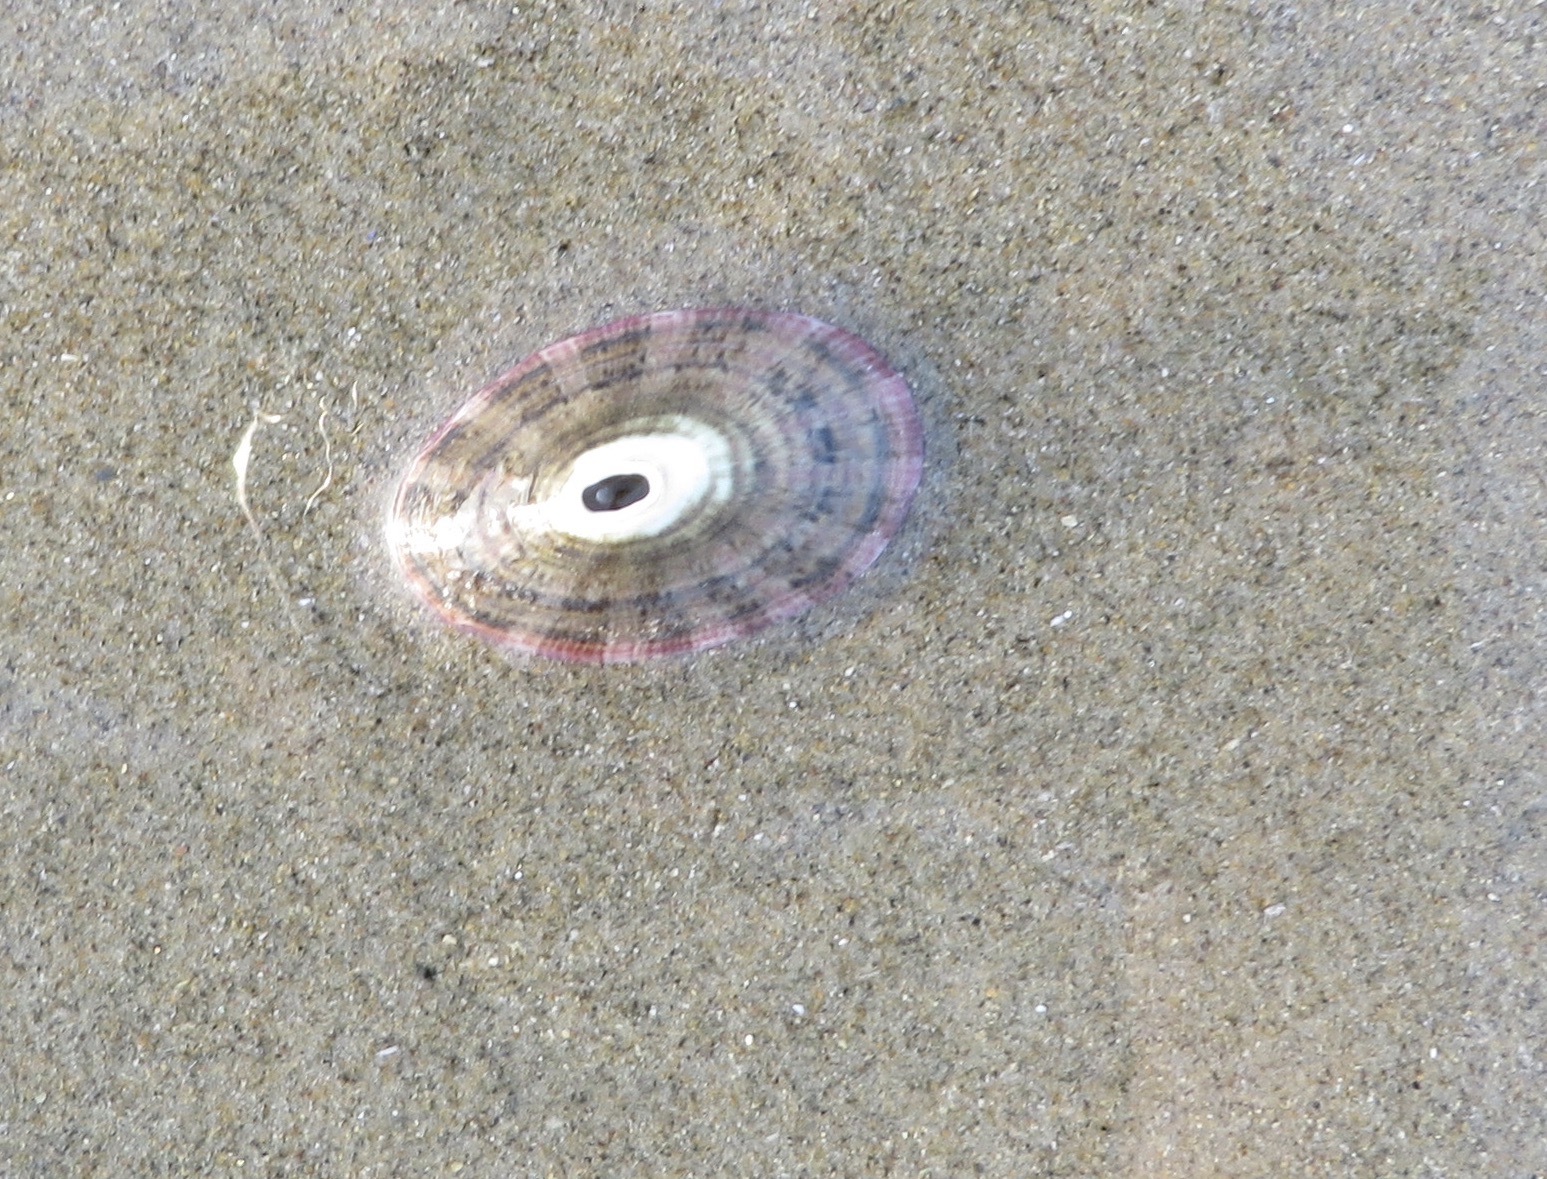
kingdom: Animalia
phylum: Mollusca
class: Gastropoda
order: Lepetellida
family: Fissurellidae
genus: Fissurella
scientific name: Fissurella volcano
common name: Volcano keyhole limpet
